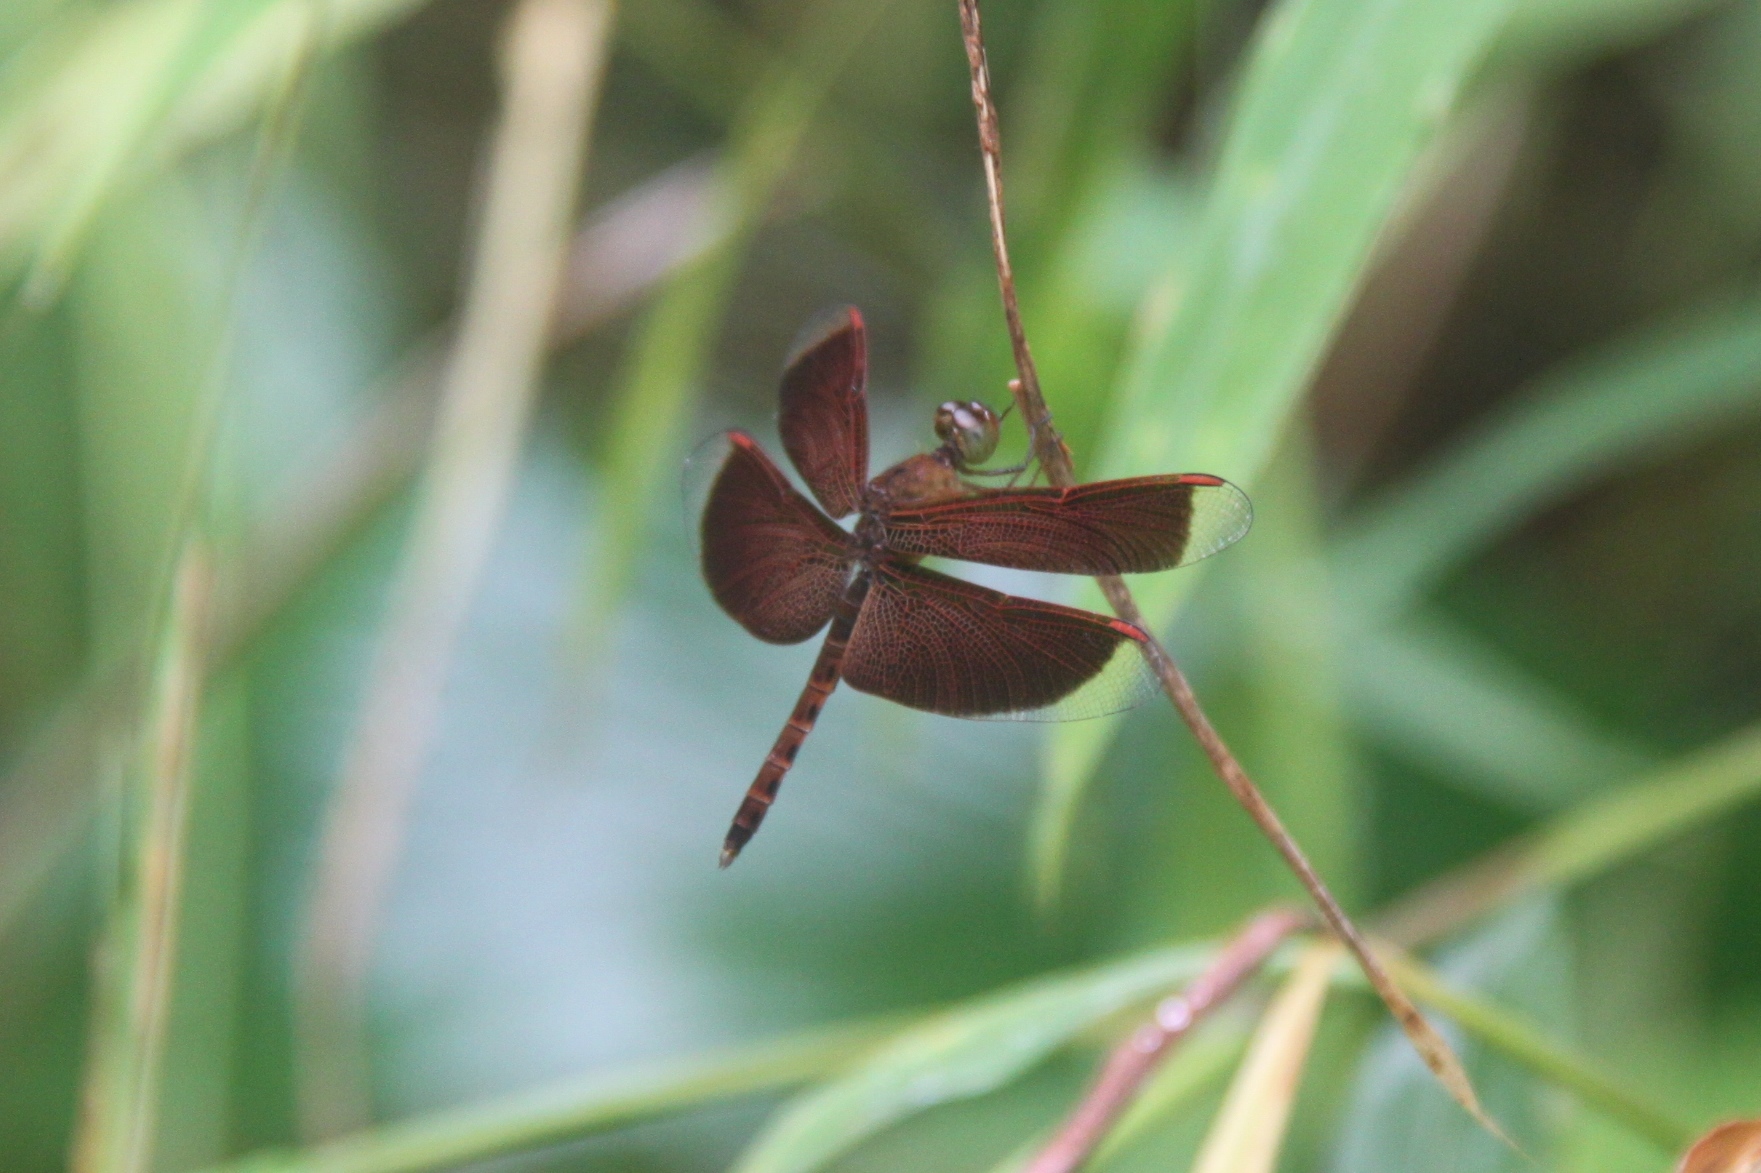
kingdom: Animalia
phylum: Arthropoda
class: Insecta
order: Odonata
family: Libellulidae
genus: Neurothemis
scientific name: Neurothemis fluctuans
